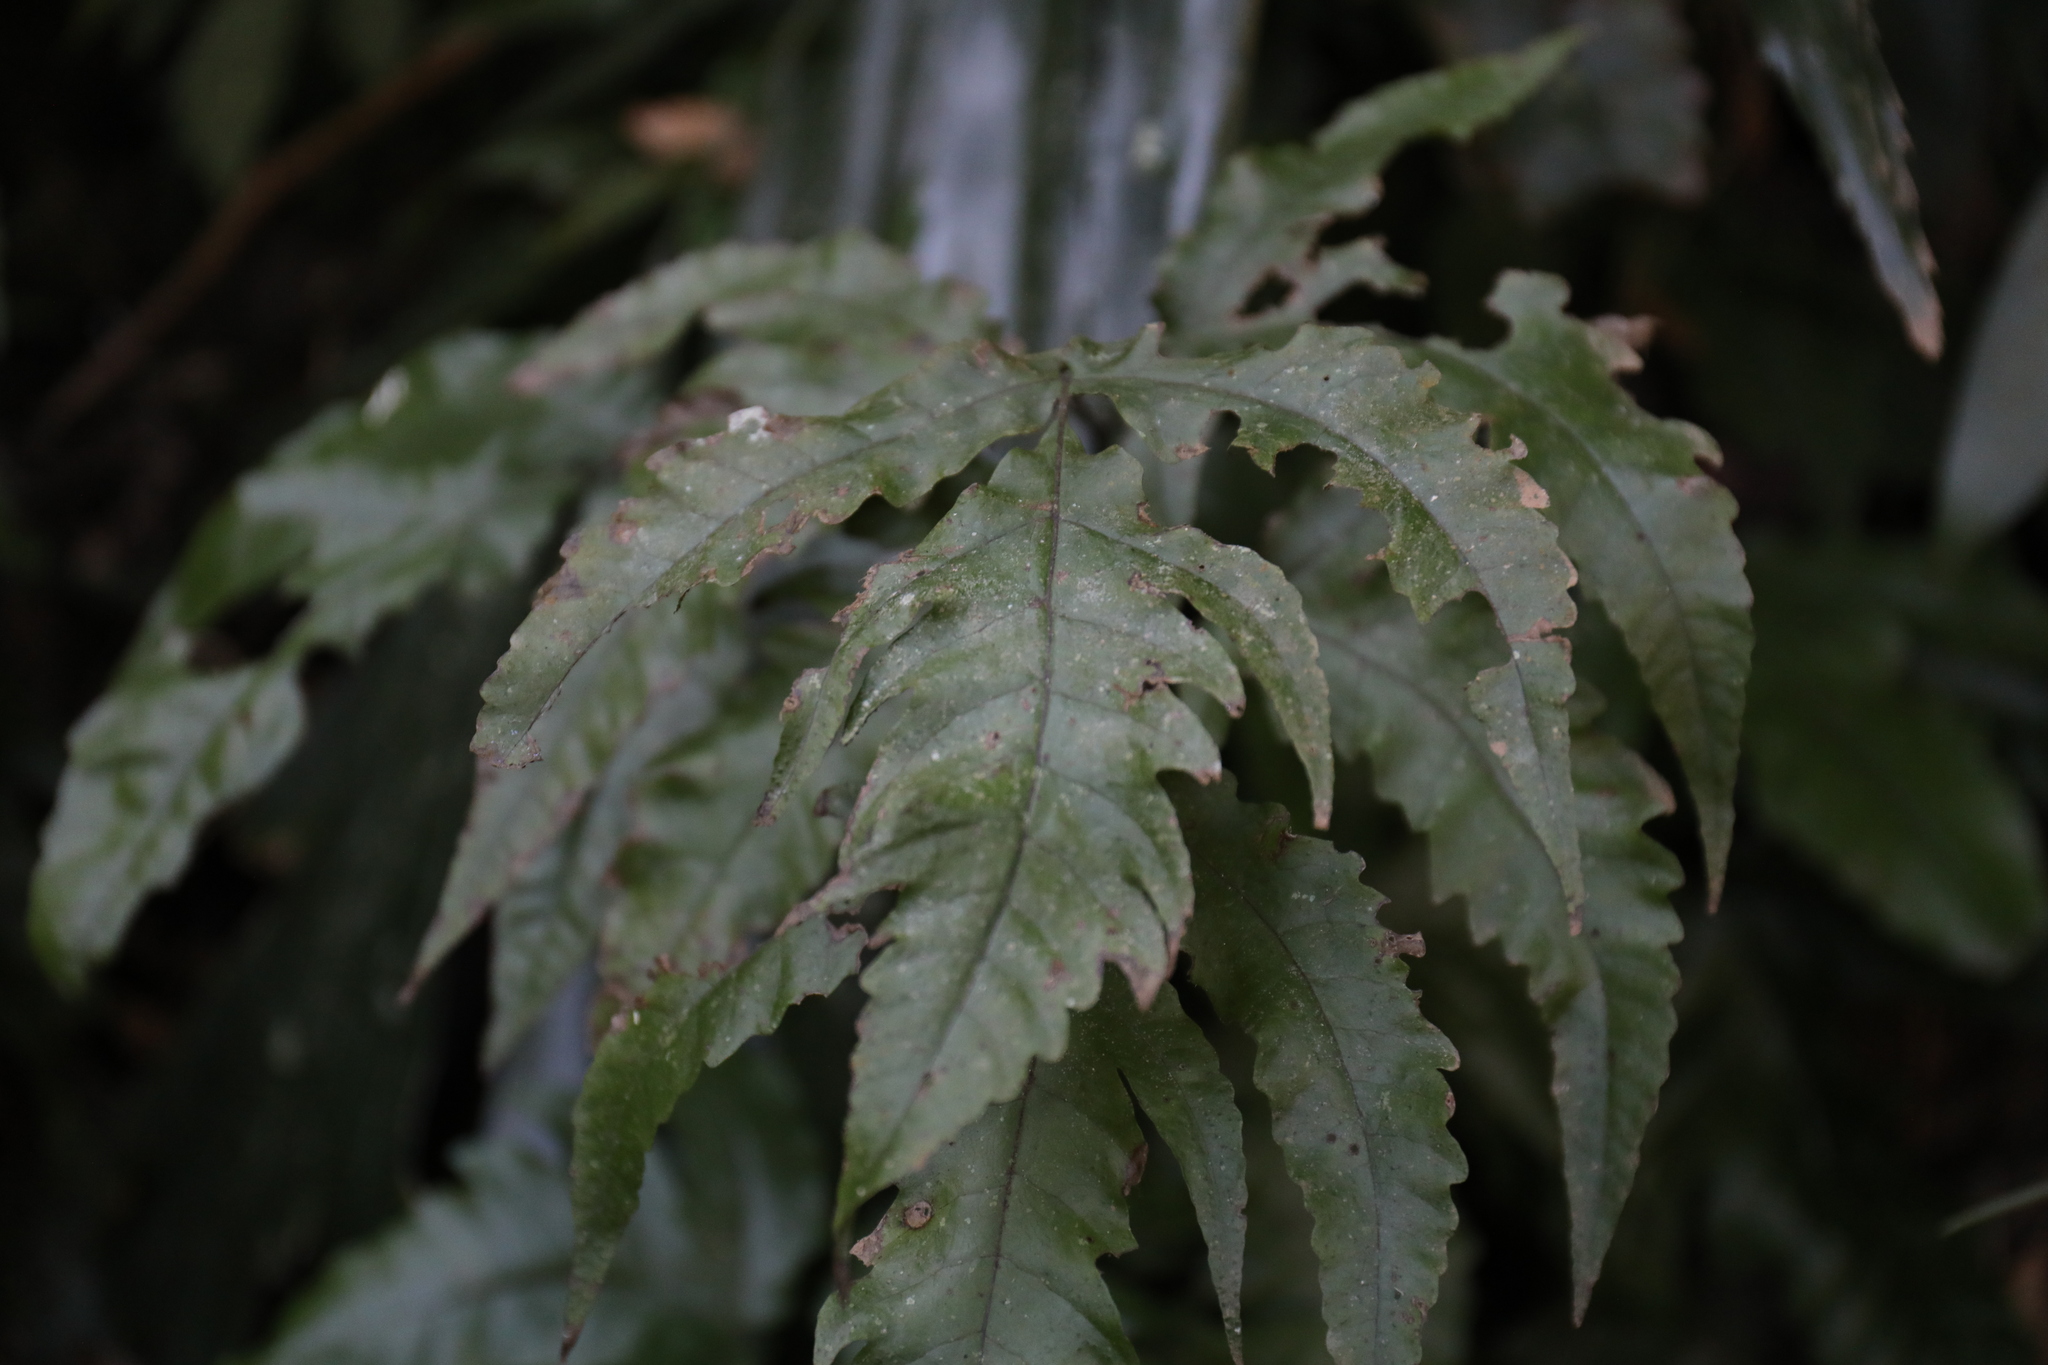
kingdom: Plantae
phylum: Tracheophyta
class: Polypodiopsida
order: Polypodiales
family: Tectariaceae
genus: Tectaria
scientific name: Tectaria subtriphylla
